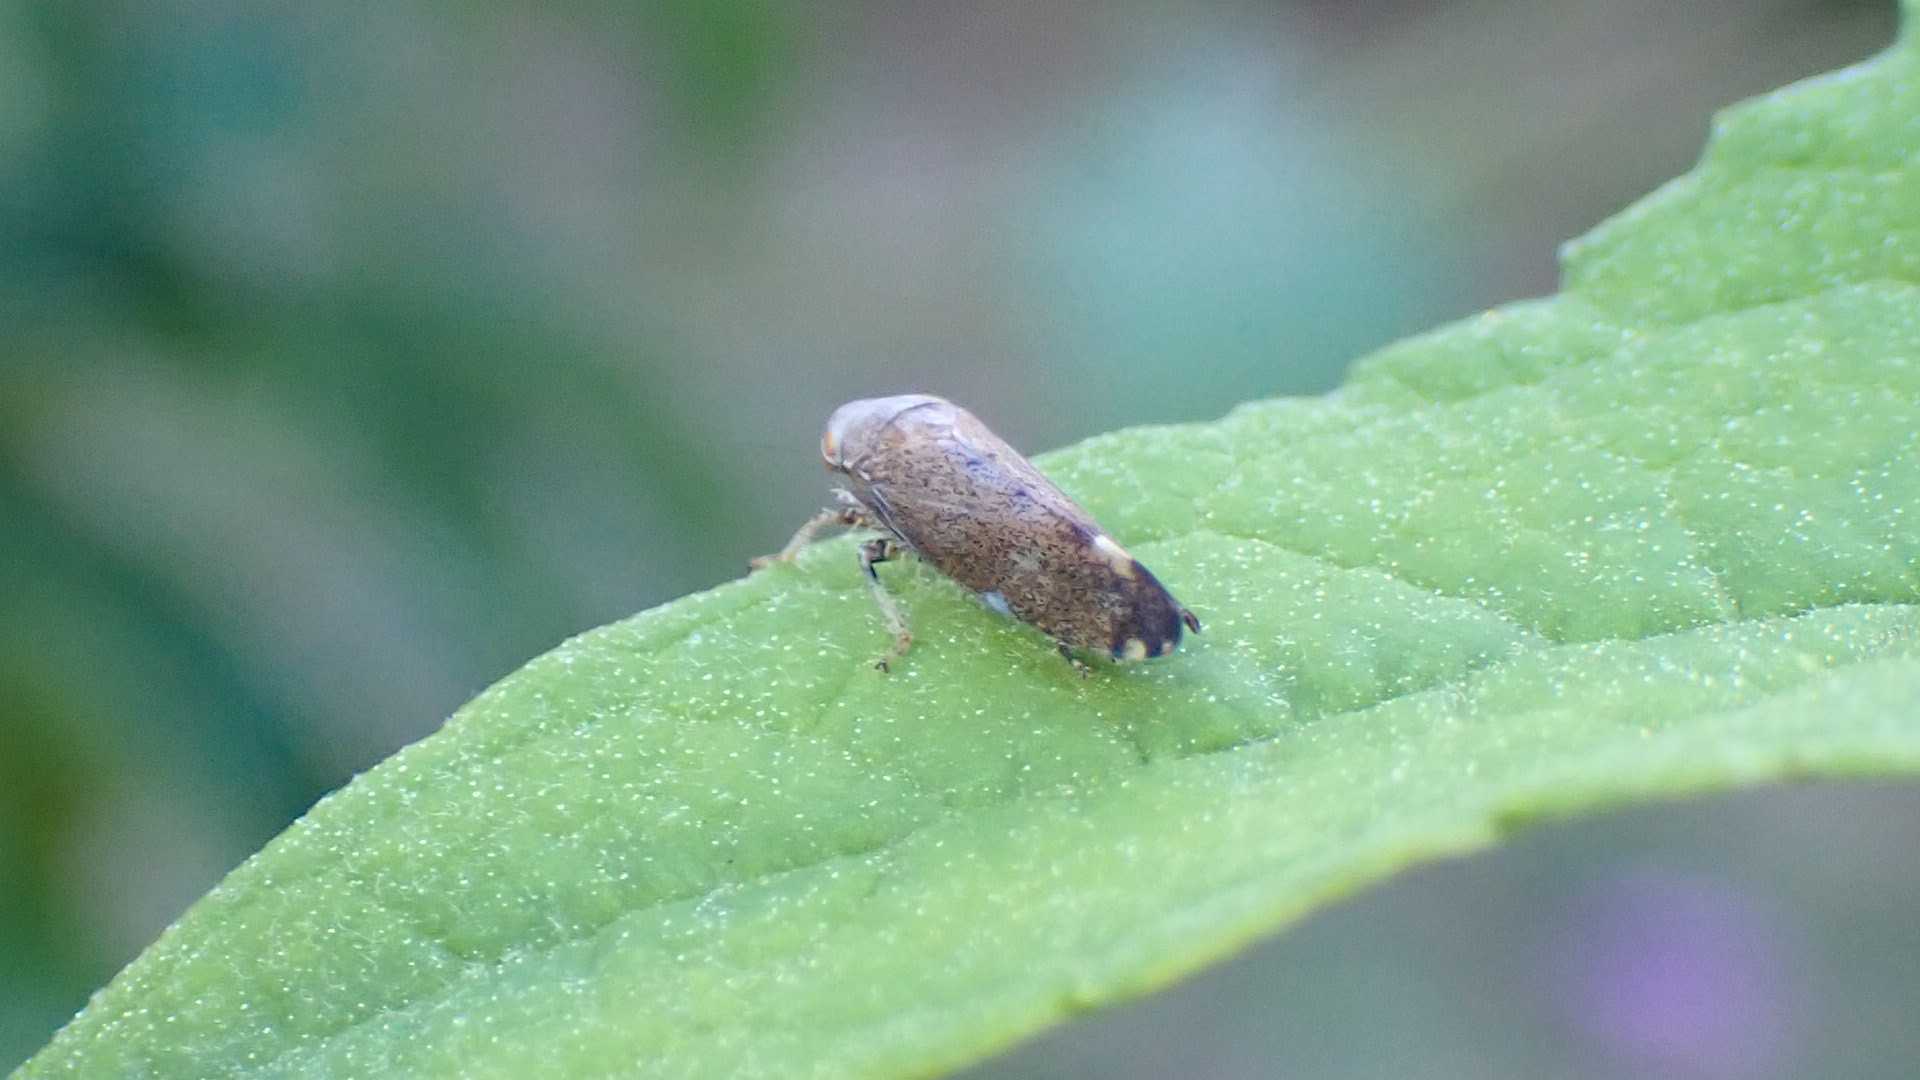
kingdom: Animalia
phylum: Arthropoda
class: Insecta
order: Hemiptera
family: Cicadellidae
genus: Fieberiella
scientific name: Fieberiella
